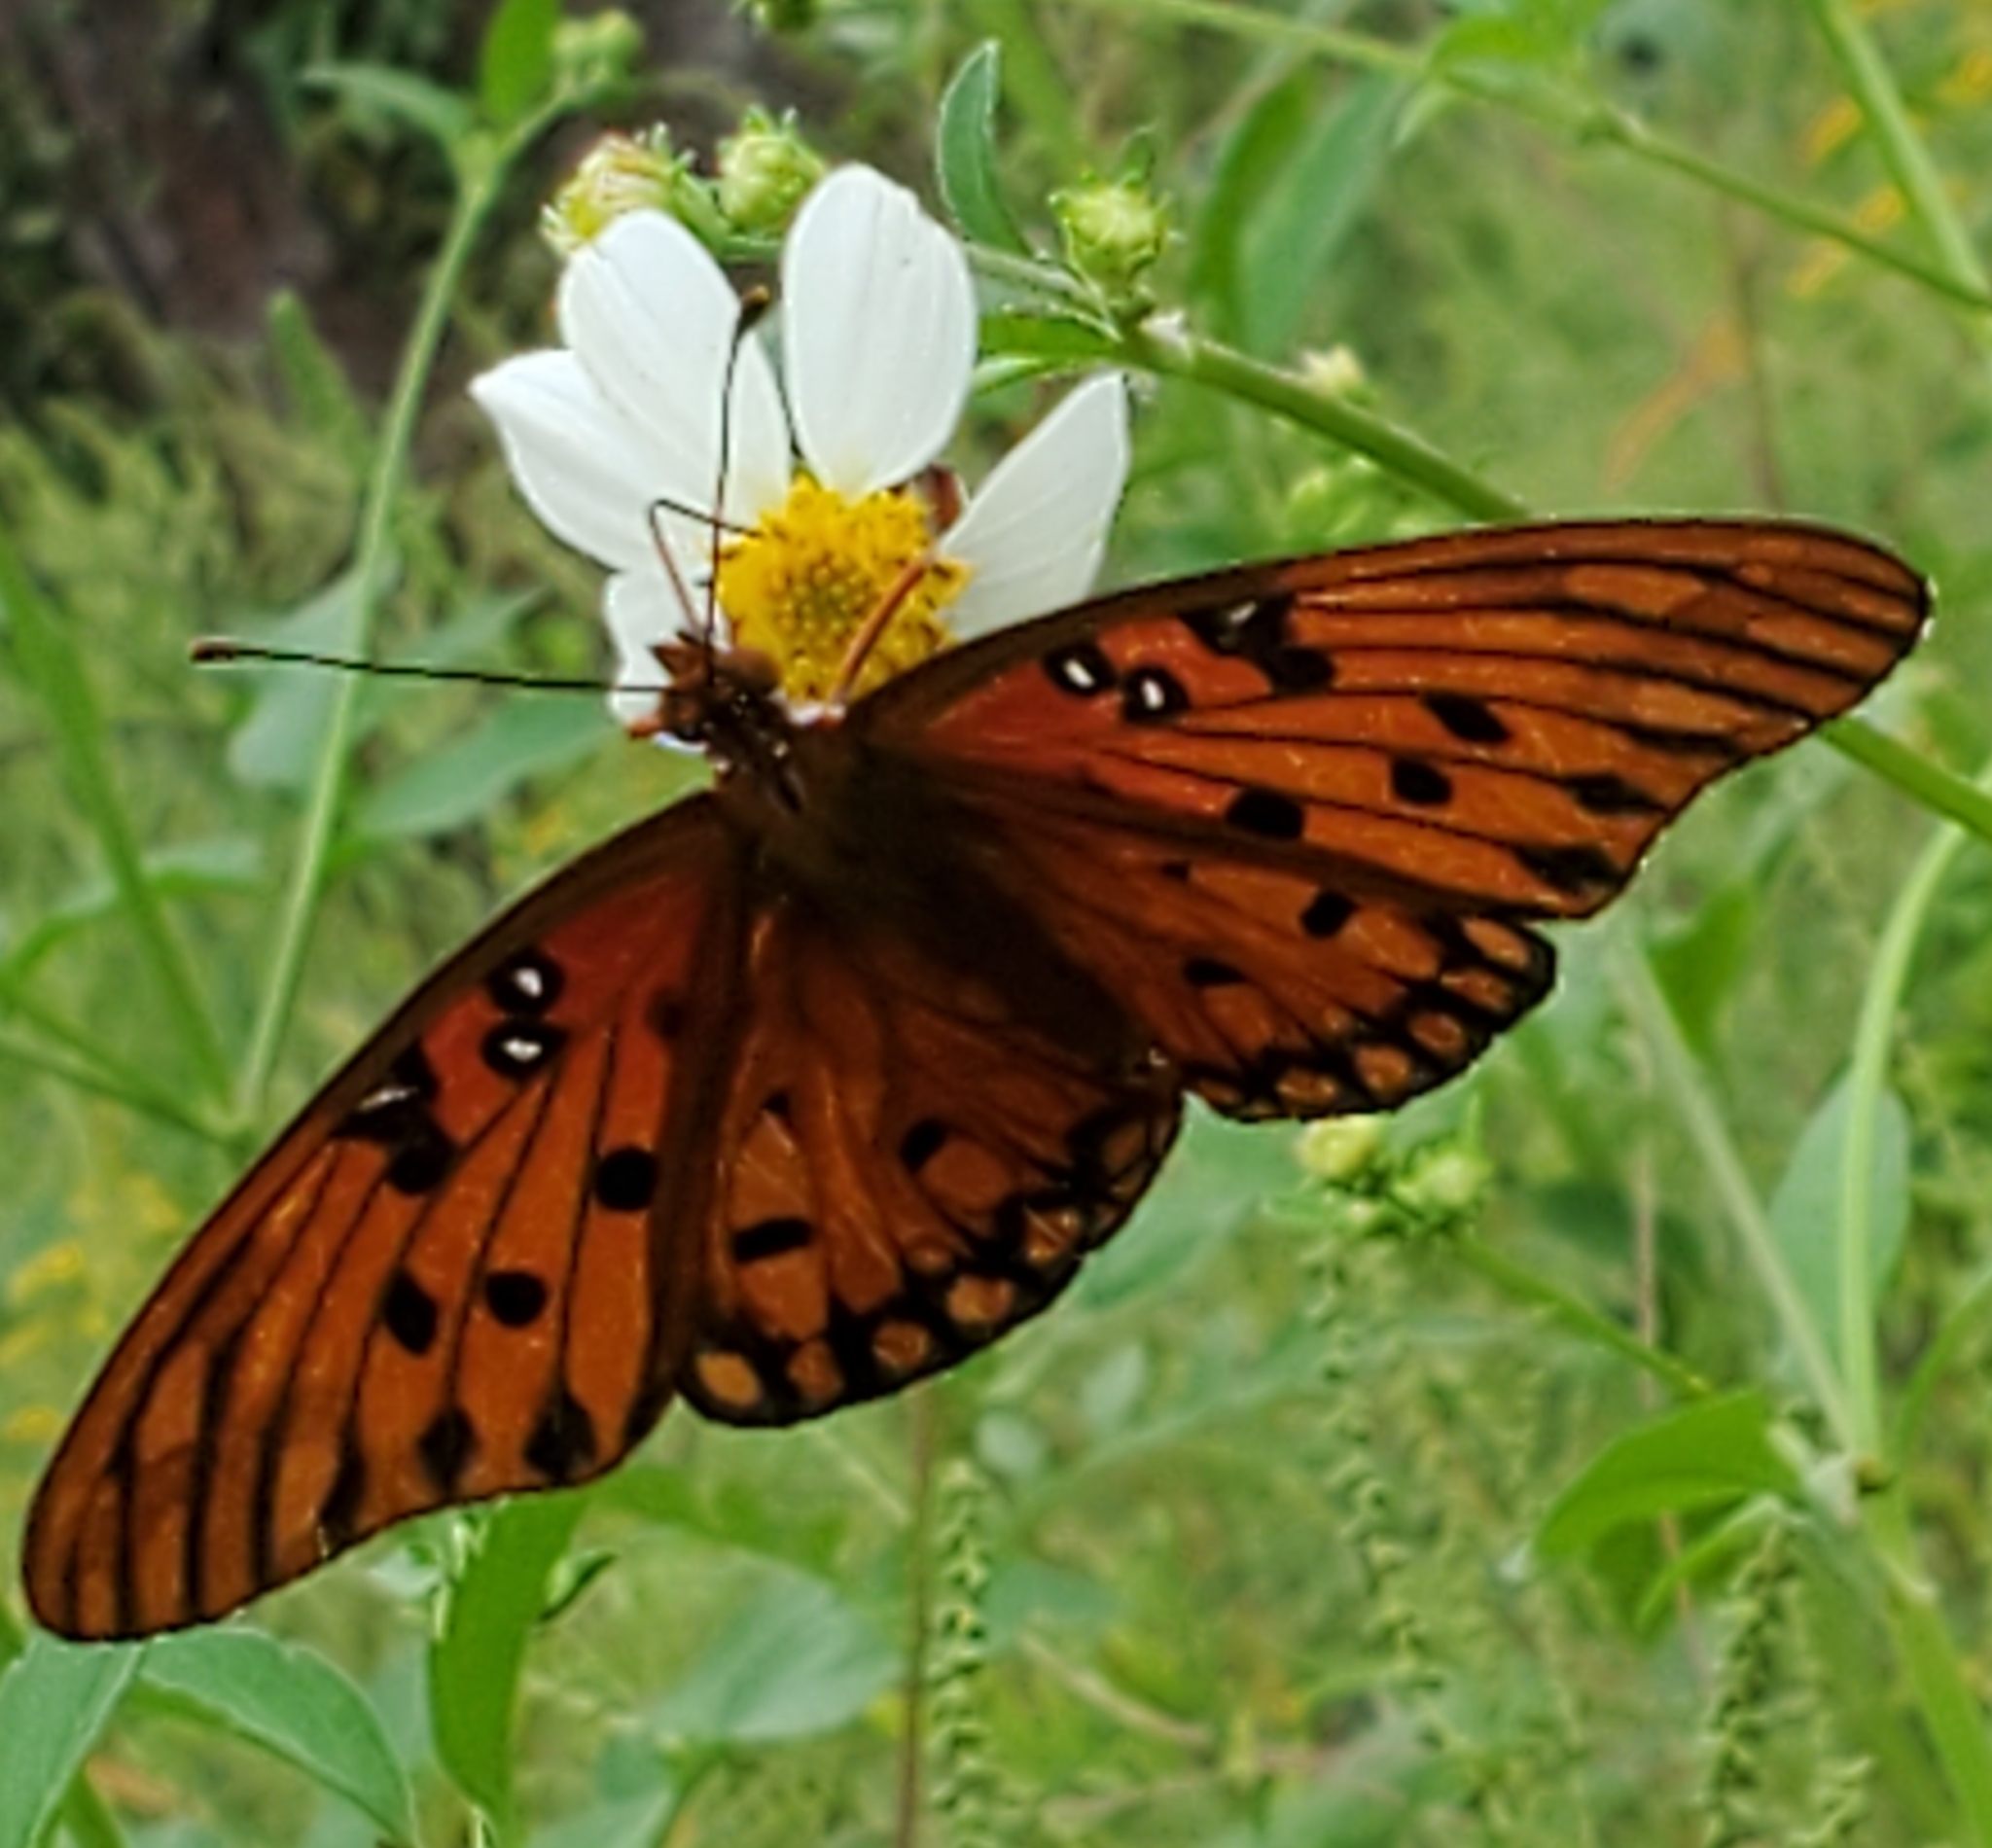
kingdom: Animalia
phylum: Arthropoda
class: Insecta
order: Lepidoptera
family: Nymphalidae
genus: Dione
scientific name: Dione vanillae
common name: Gulf fritillary
